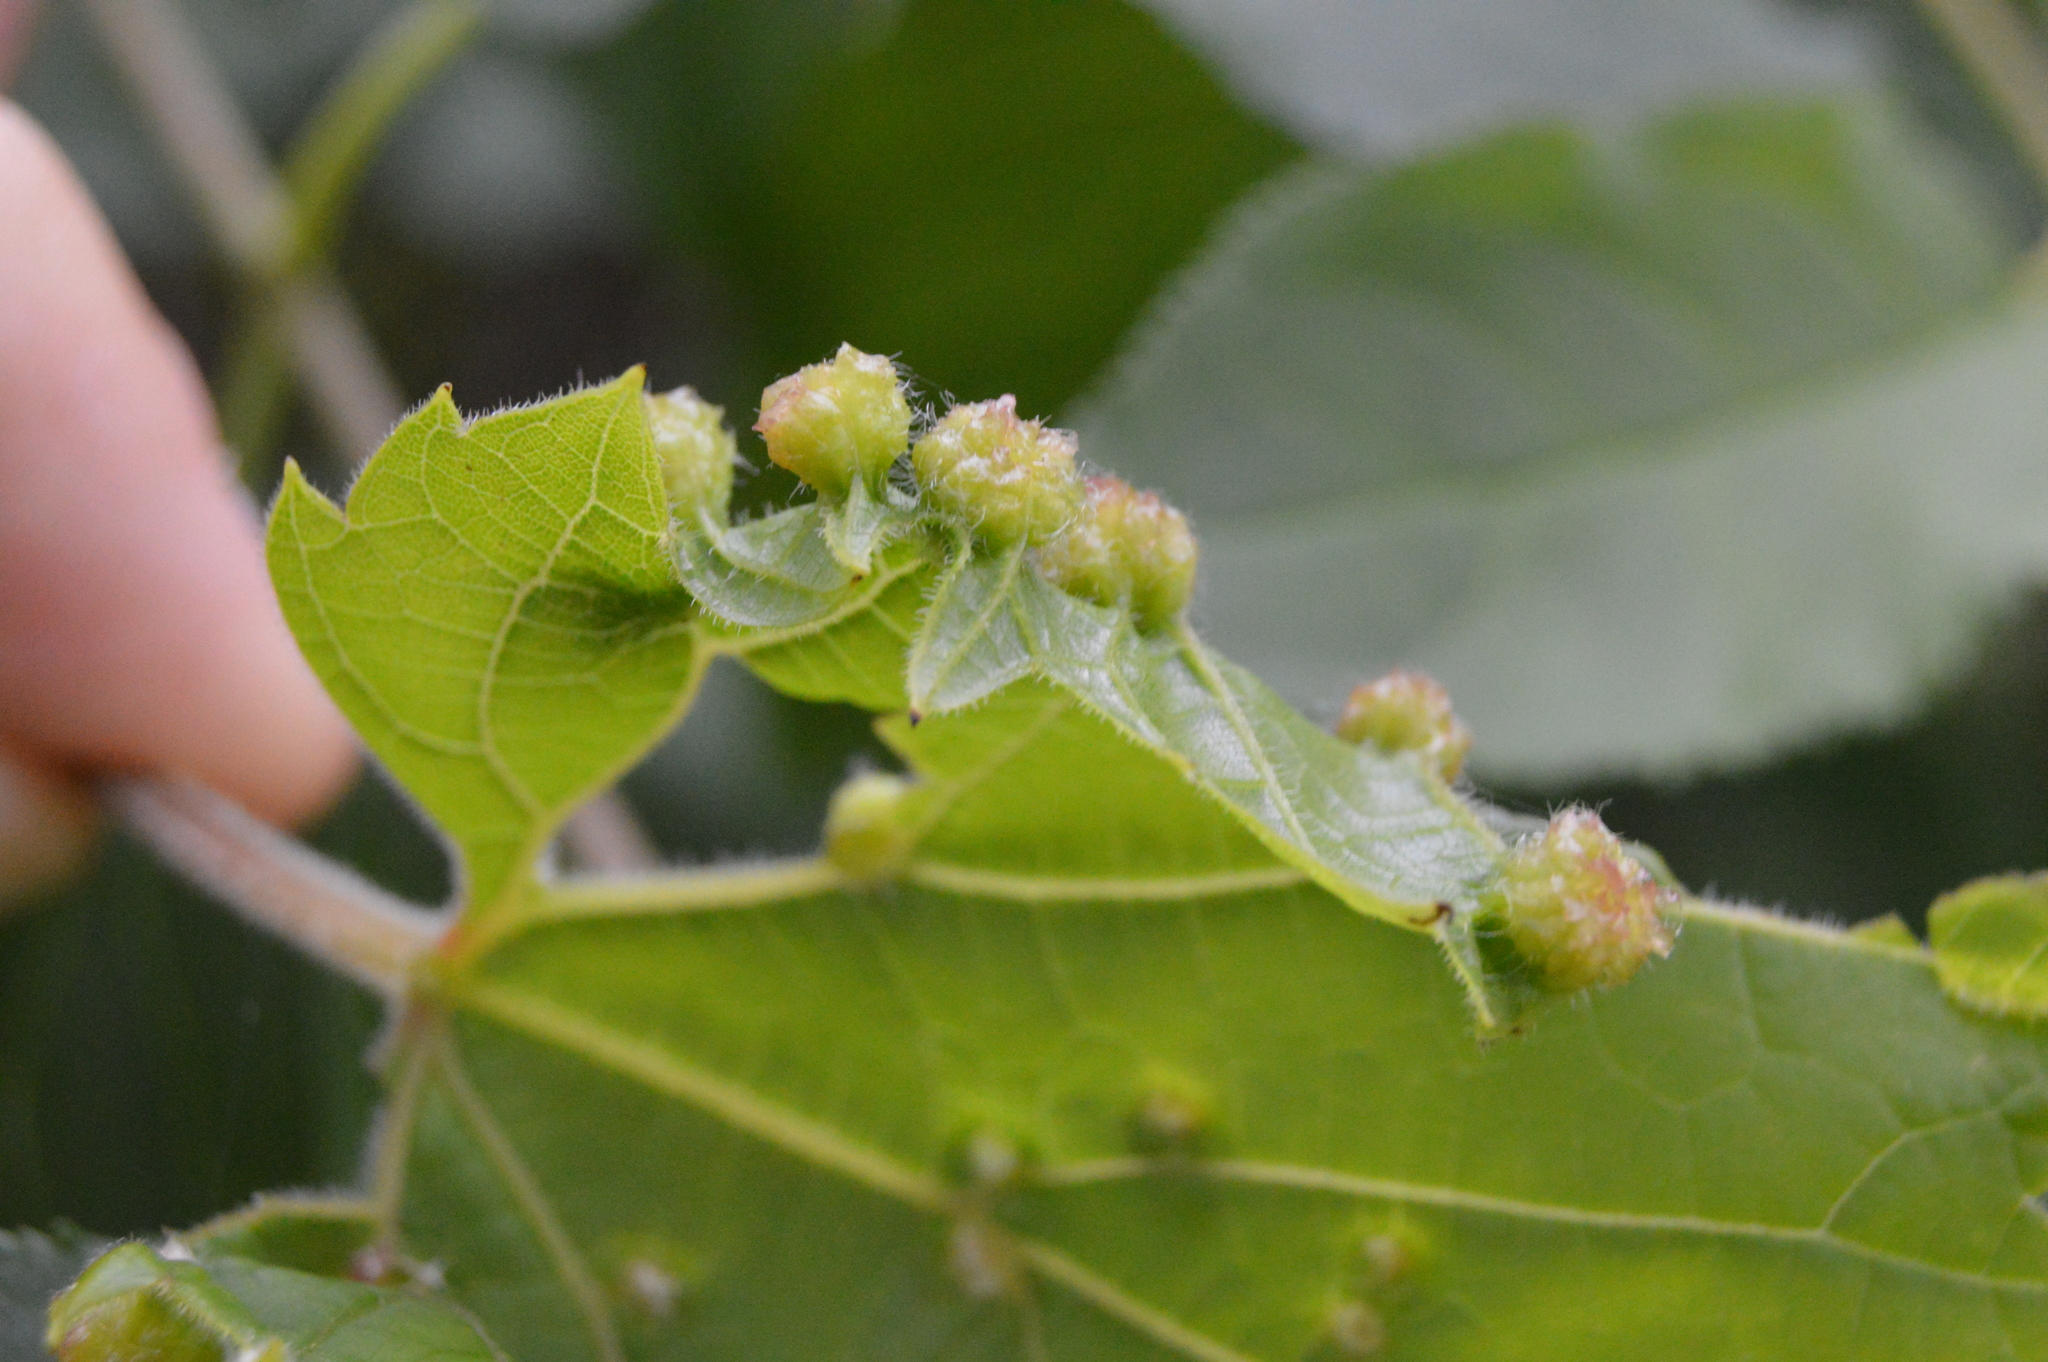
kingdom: Animalia
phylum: Arthropoda
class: Insecta
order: Hemiptera
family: Phylloxeridae
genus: Daktulosphaira
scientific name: Daktulosphaira vitifoliae
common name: Grape phylloxera
